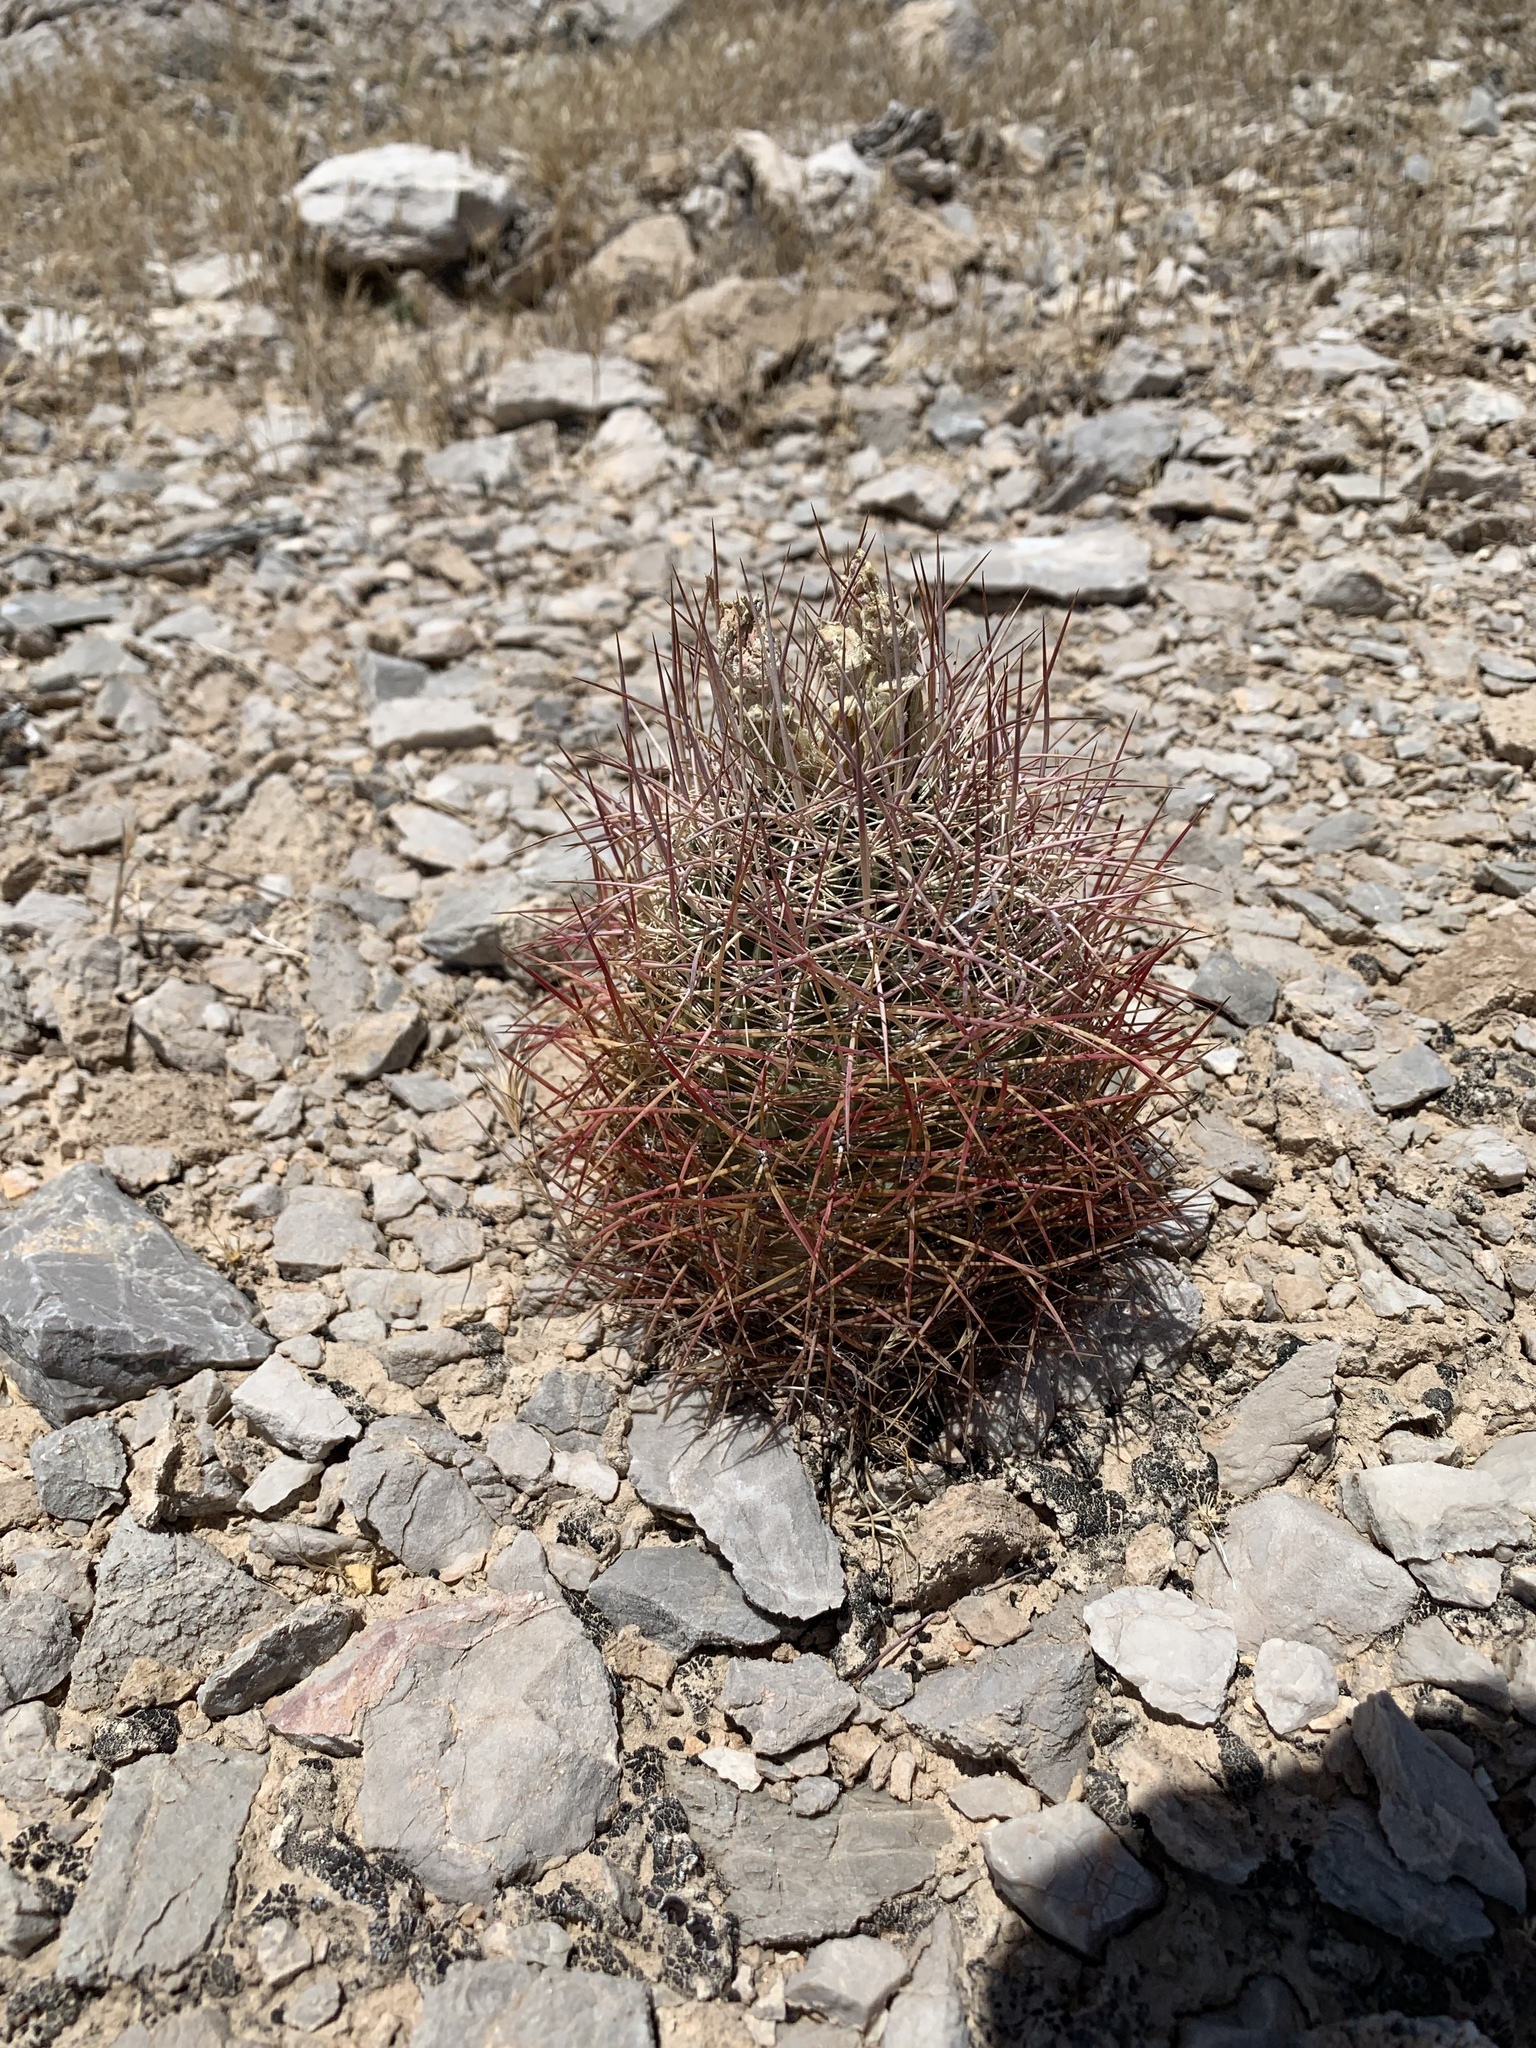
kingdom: Plantae
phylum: Tracheophyta
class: Magnoliopsida
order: Caryophyllales
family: Cactaceae
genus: Sclerocactus
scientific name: Sclerocactus johnsonii
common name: Eight-spine fishhook cactus
